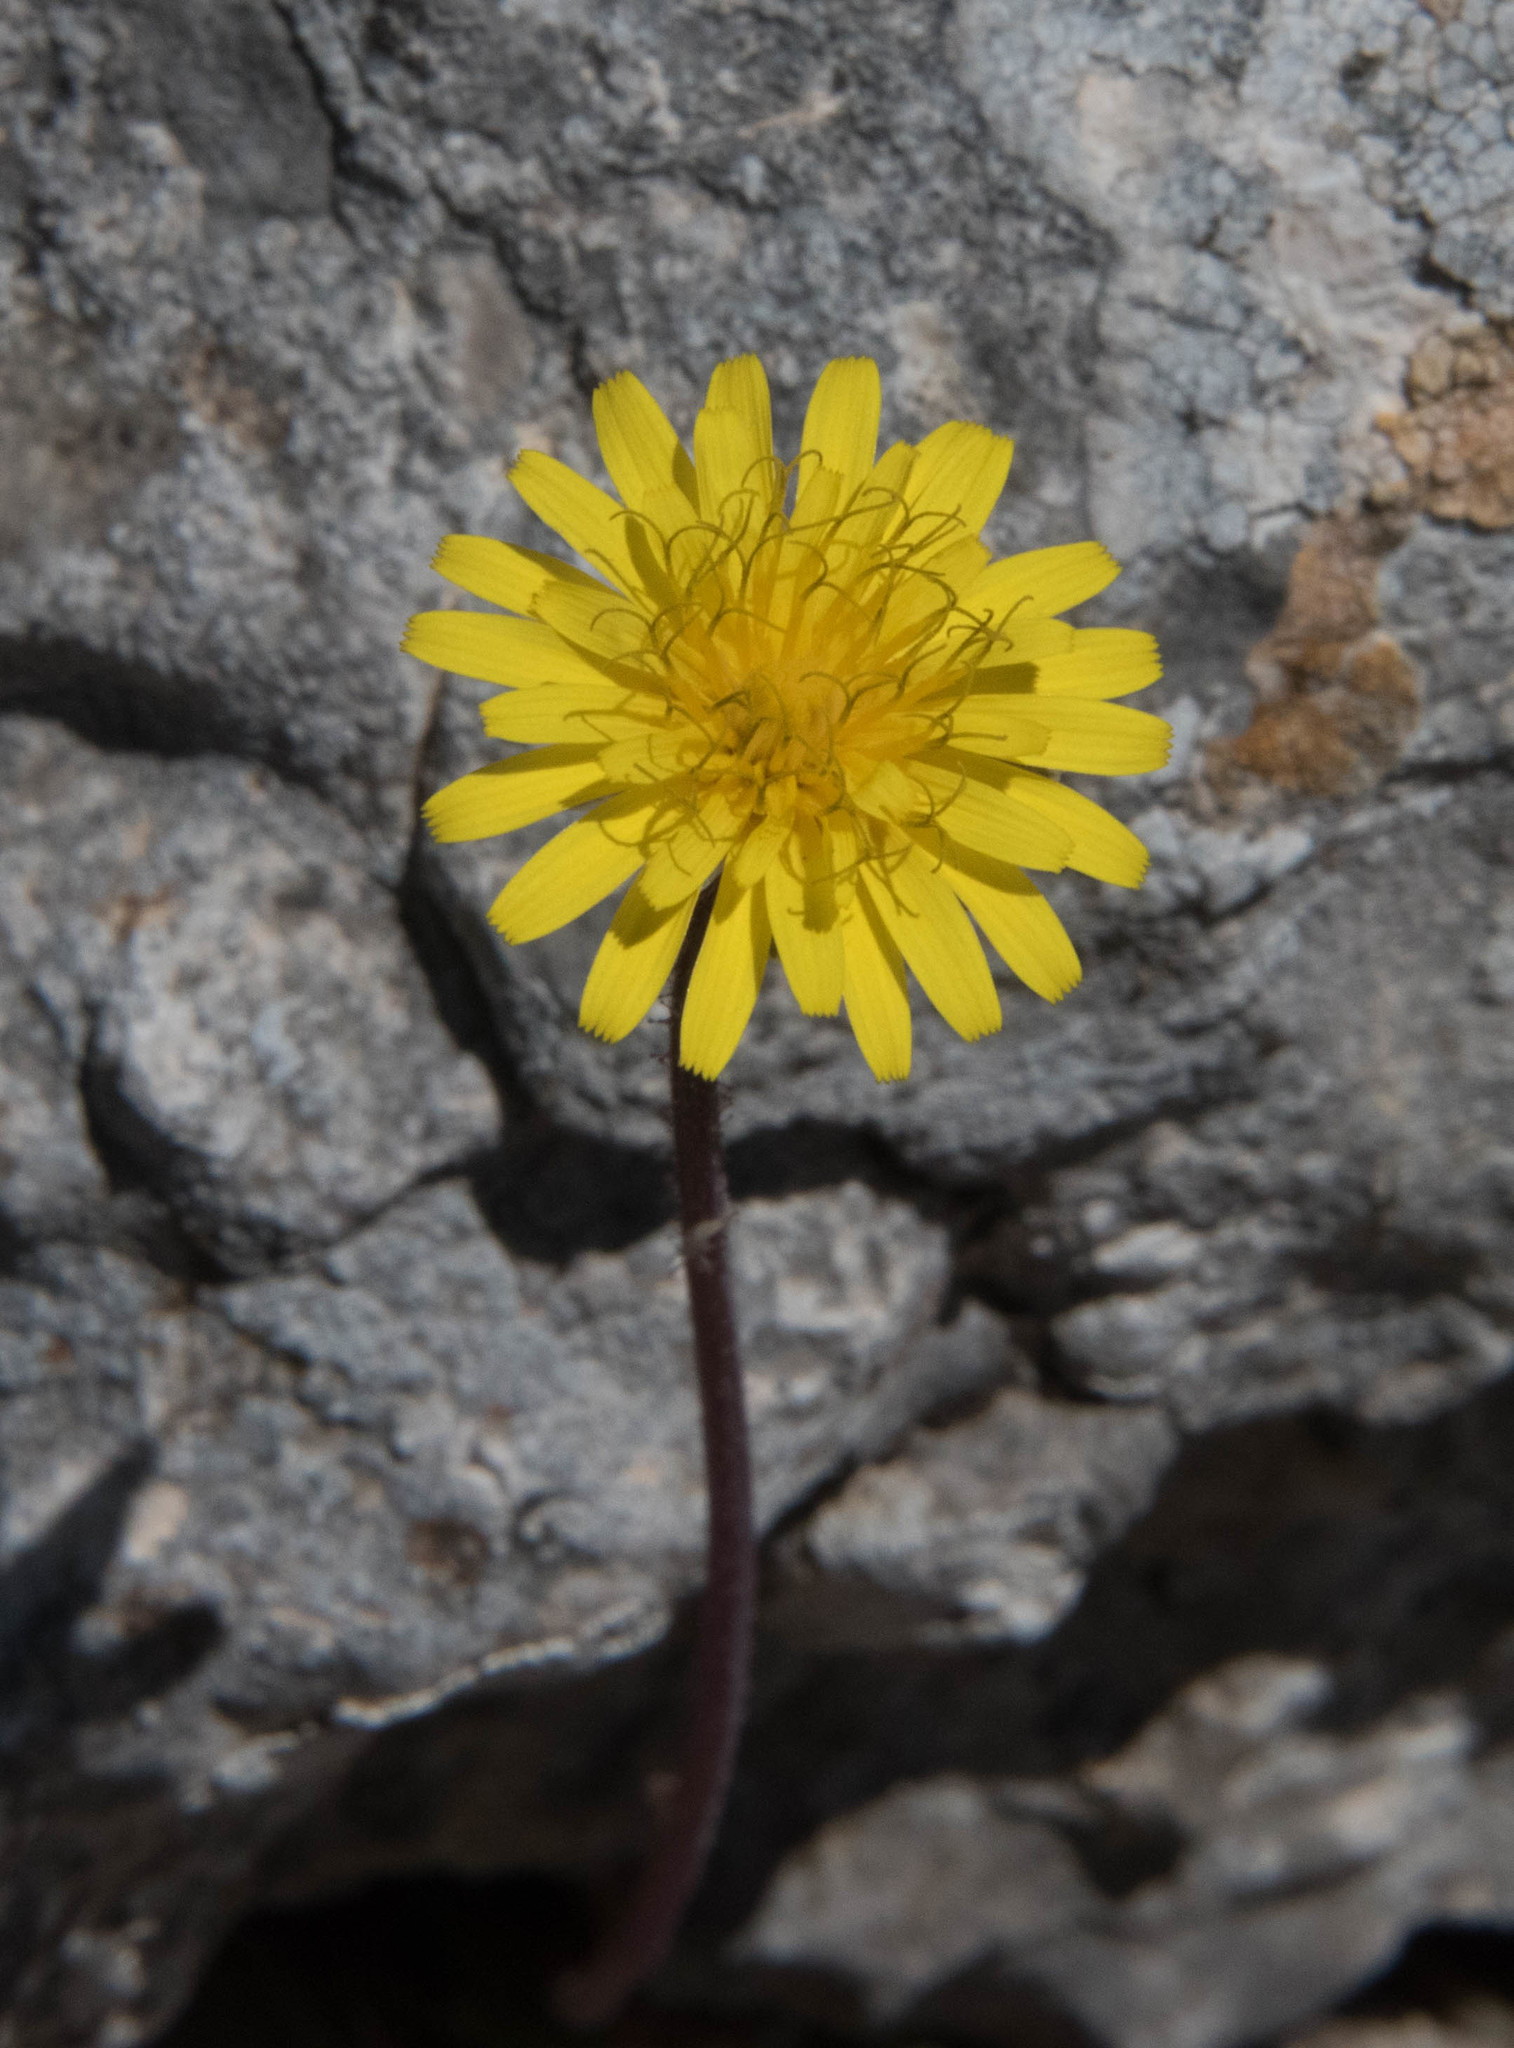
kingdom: Plantae
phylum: Tracheophyta
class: Magnoliopsida
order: Asterales
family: Asteraceae
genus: Aetheorhiza
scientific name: Aetheorhiza bulbosa
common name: Tuberous hawk's-beard
